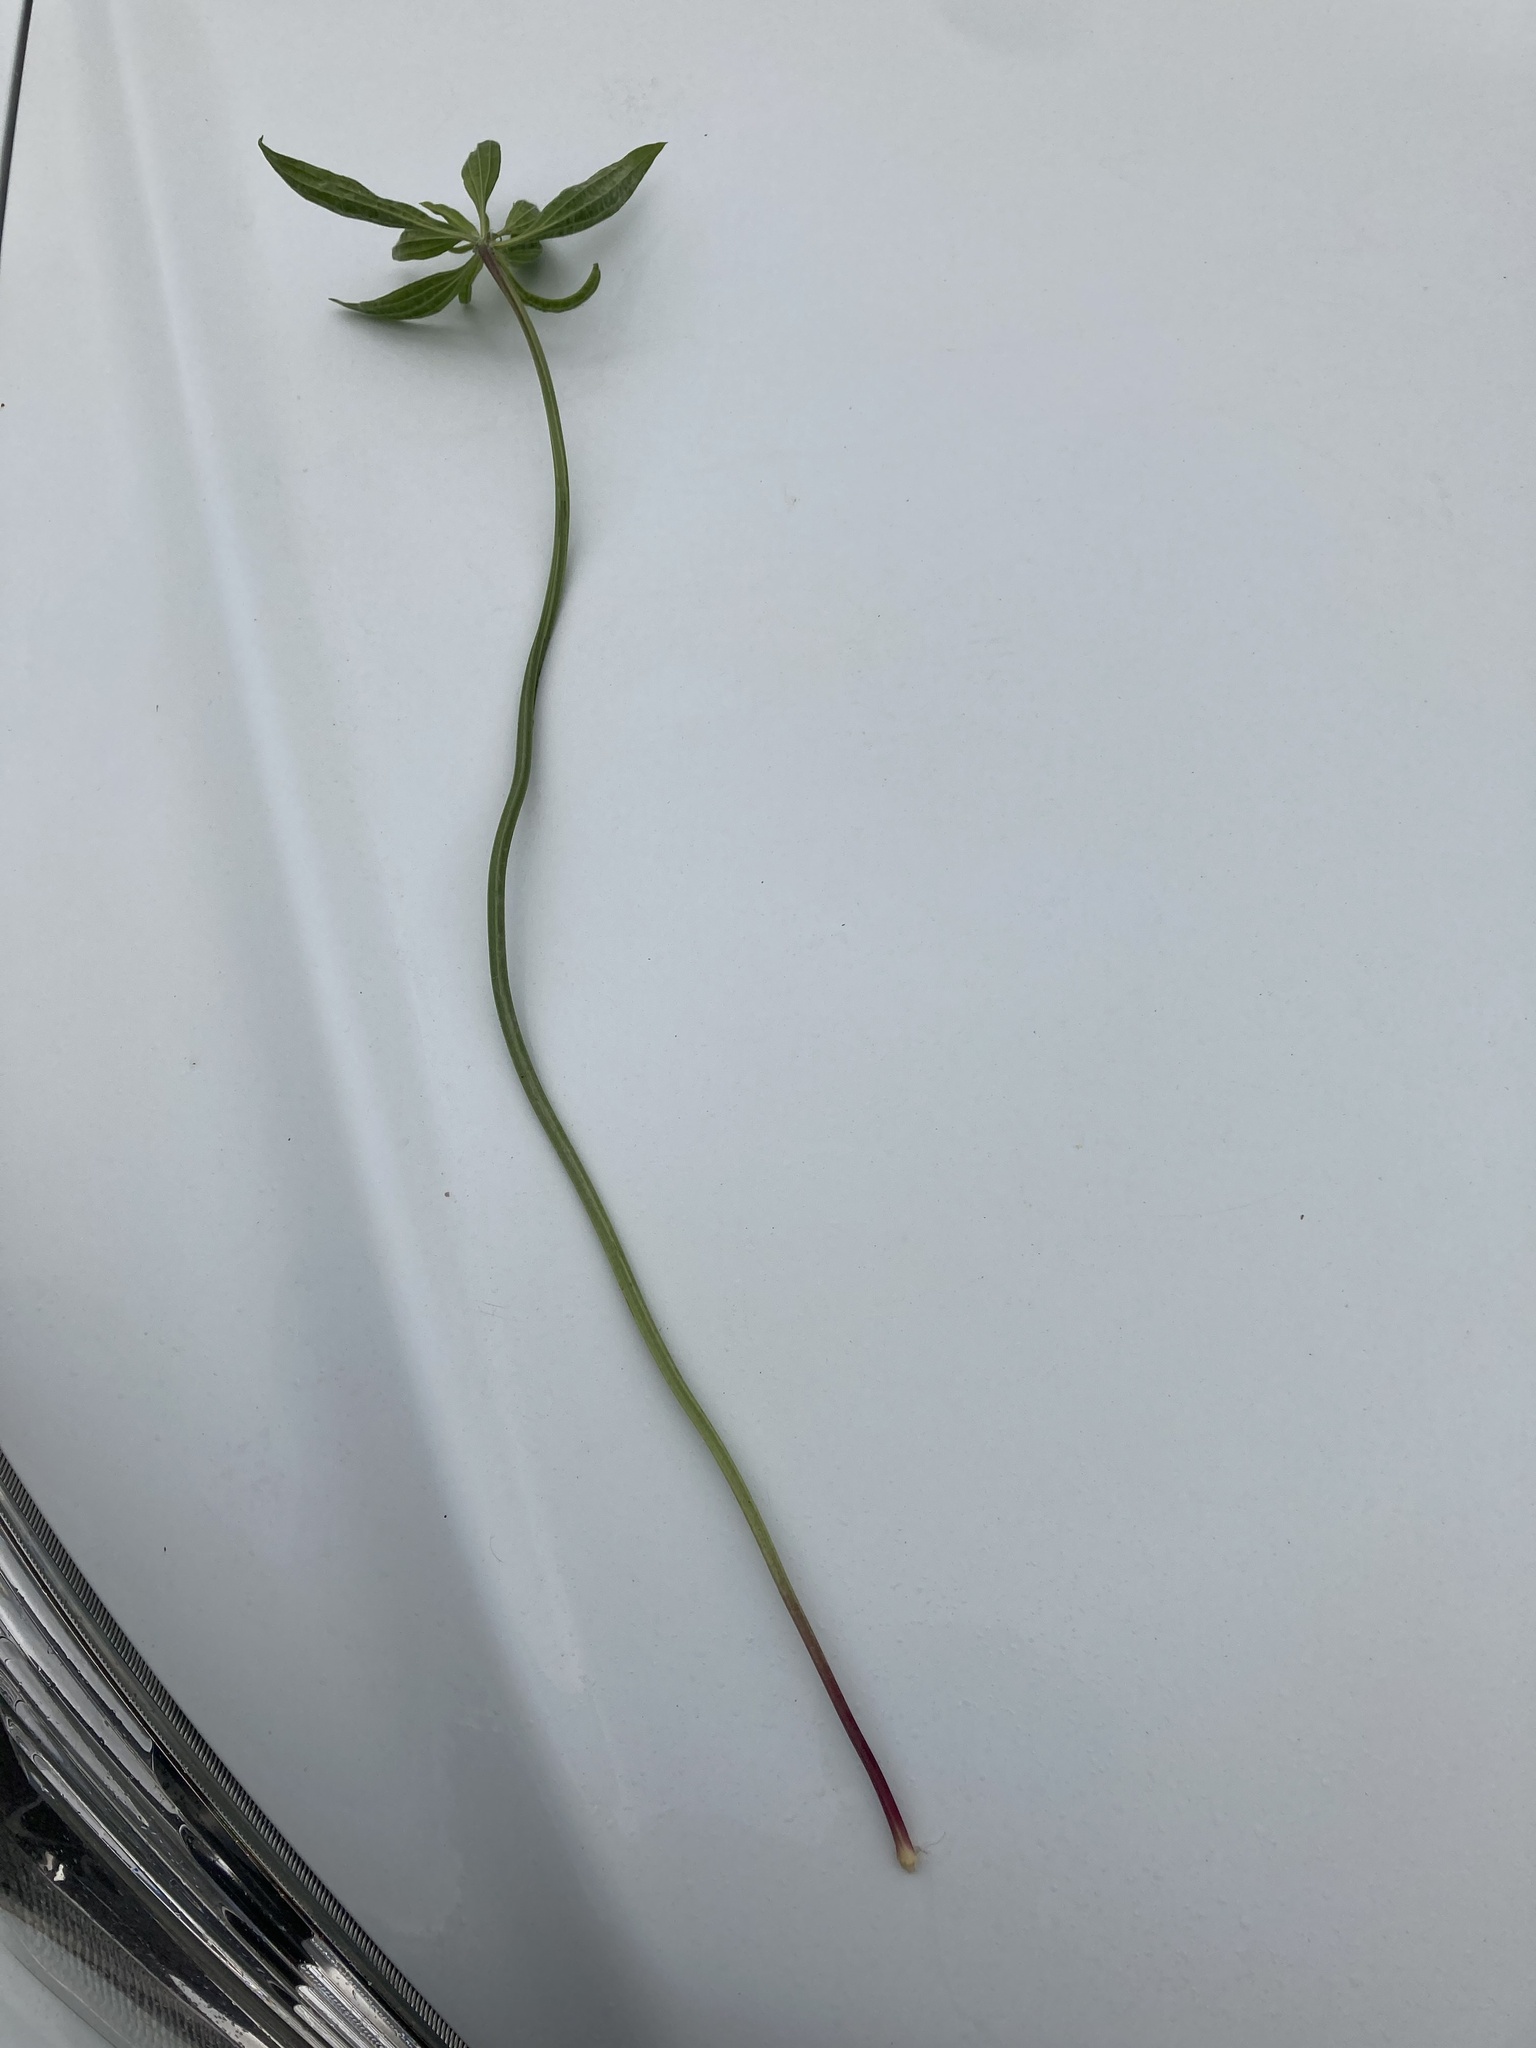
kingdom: Plantae
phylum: Tracheophyta
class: Magnoliopsida
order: Lamiales
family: Plantaginaceae
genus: Plantago
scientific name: Plantago lanceolata
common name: Ribwort plantain
